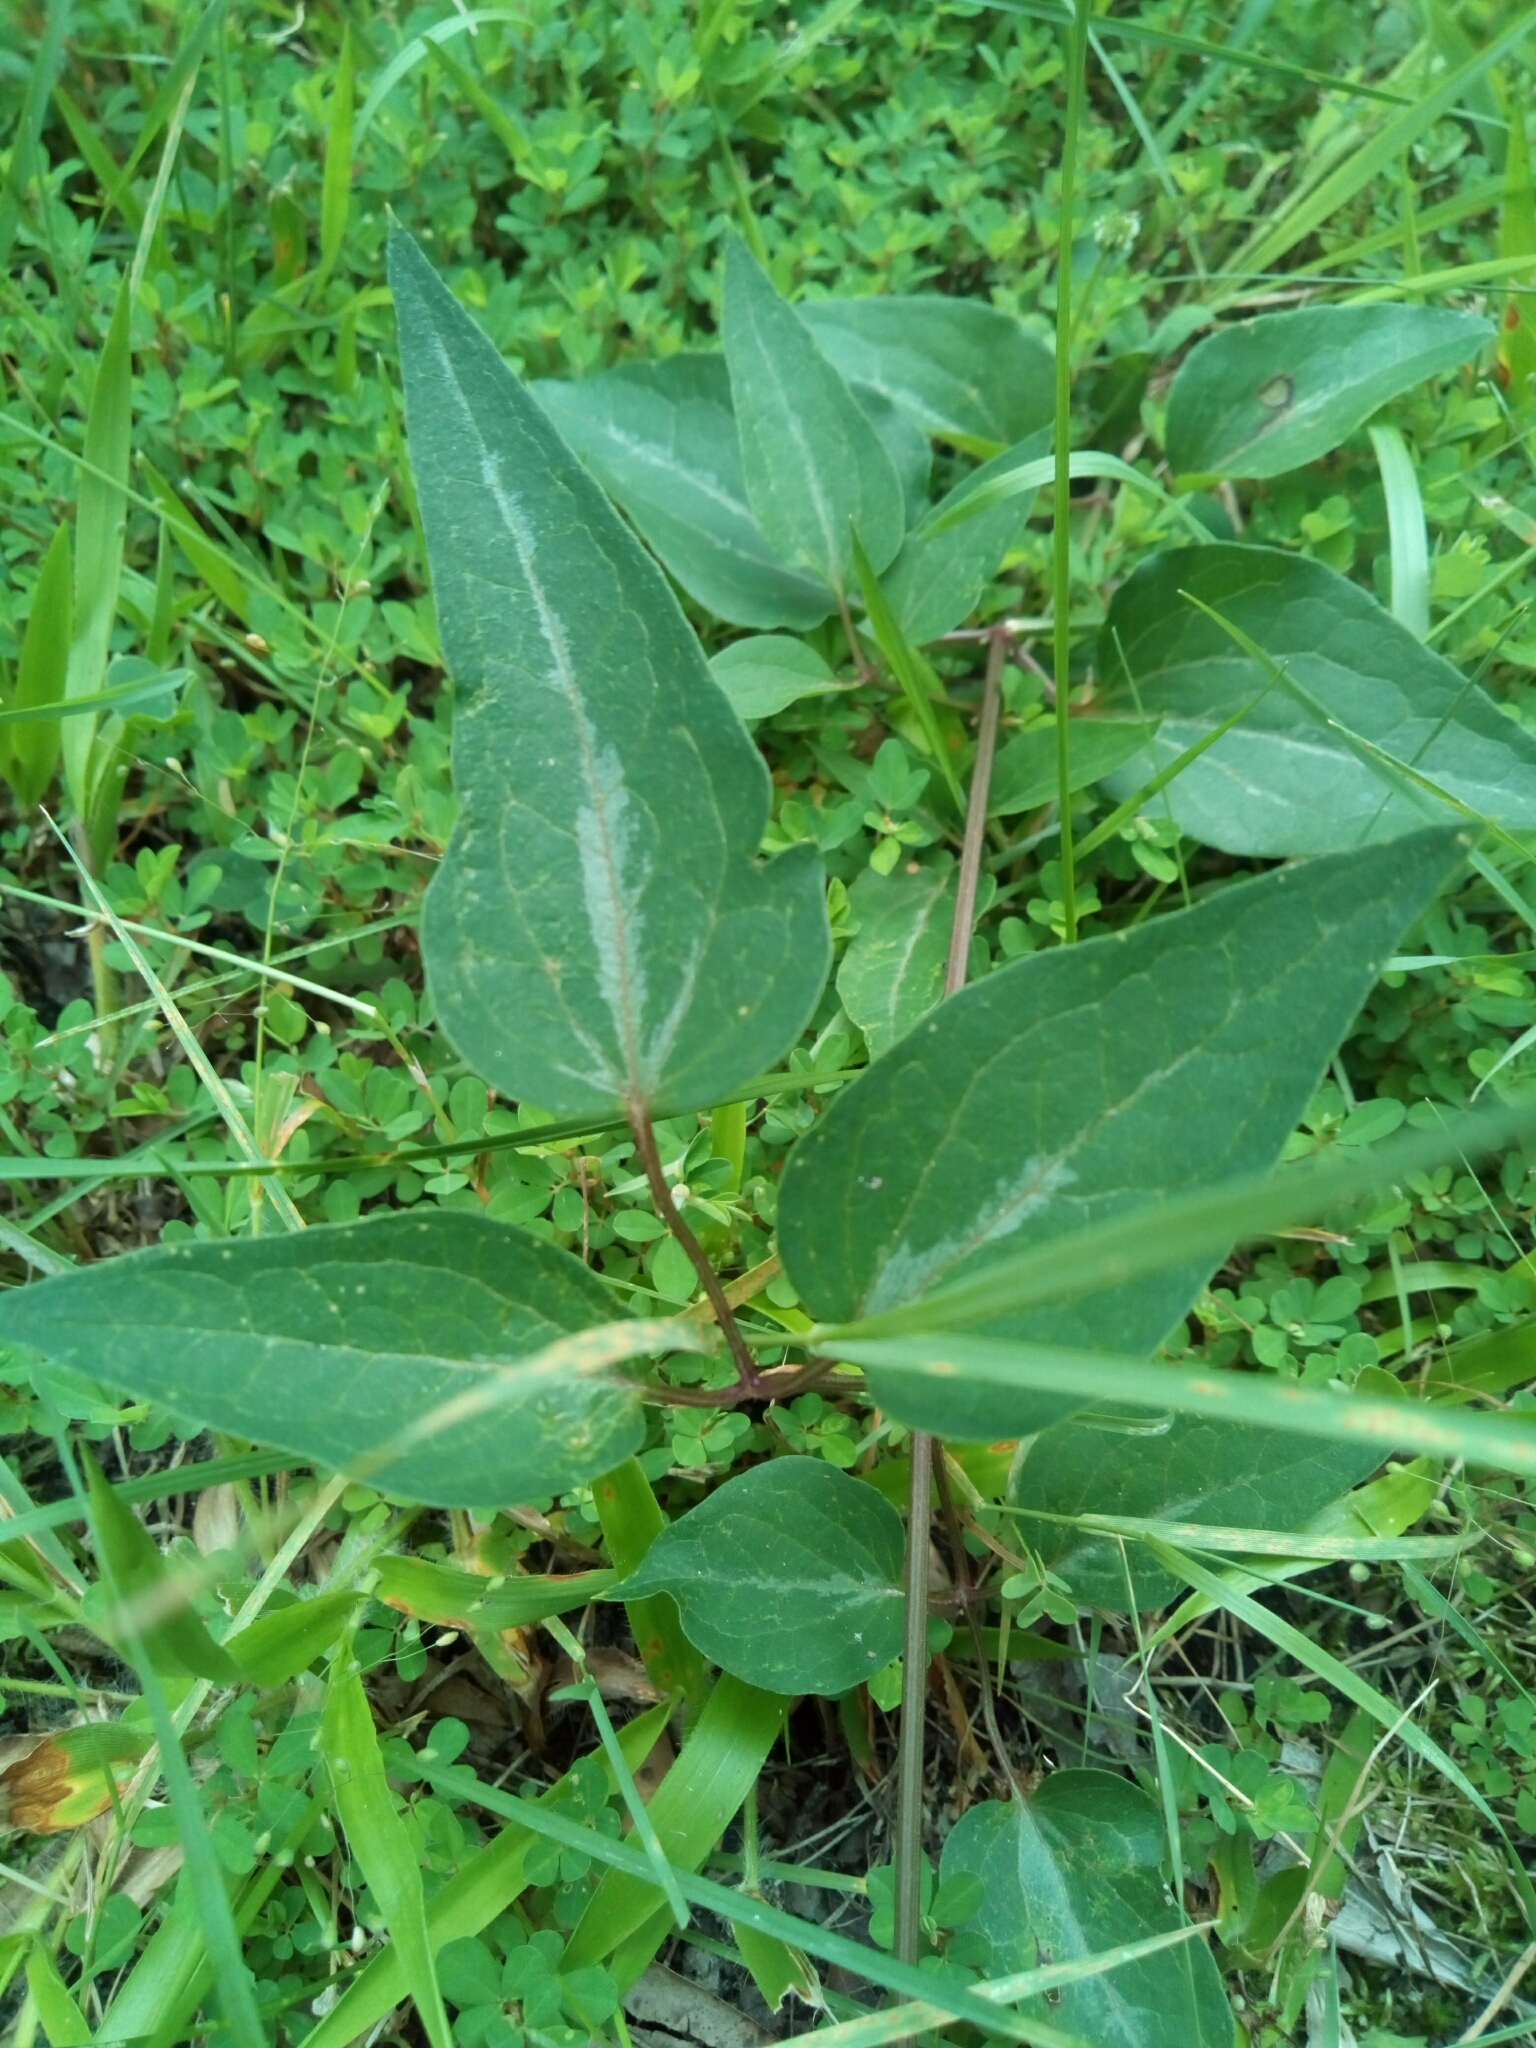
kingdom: Plantae
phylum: Tracheophyta
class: Magnoliopsida
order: Ranunculales
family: Ranunculaceae
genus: Clematis
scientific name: Clematis terniflora
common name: Sweet autumn clematis
